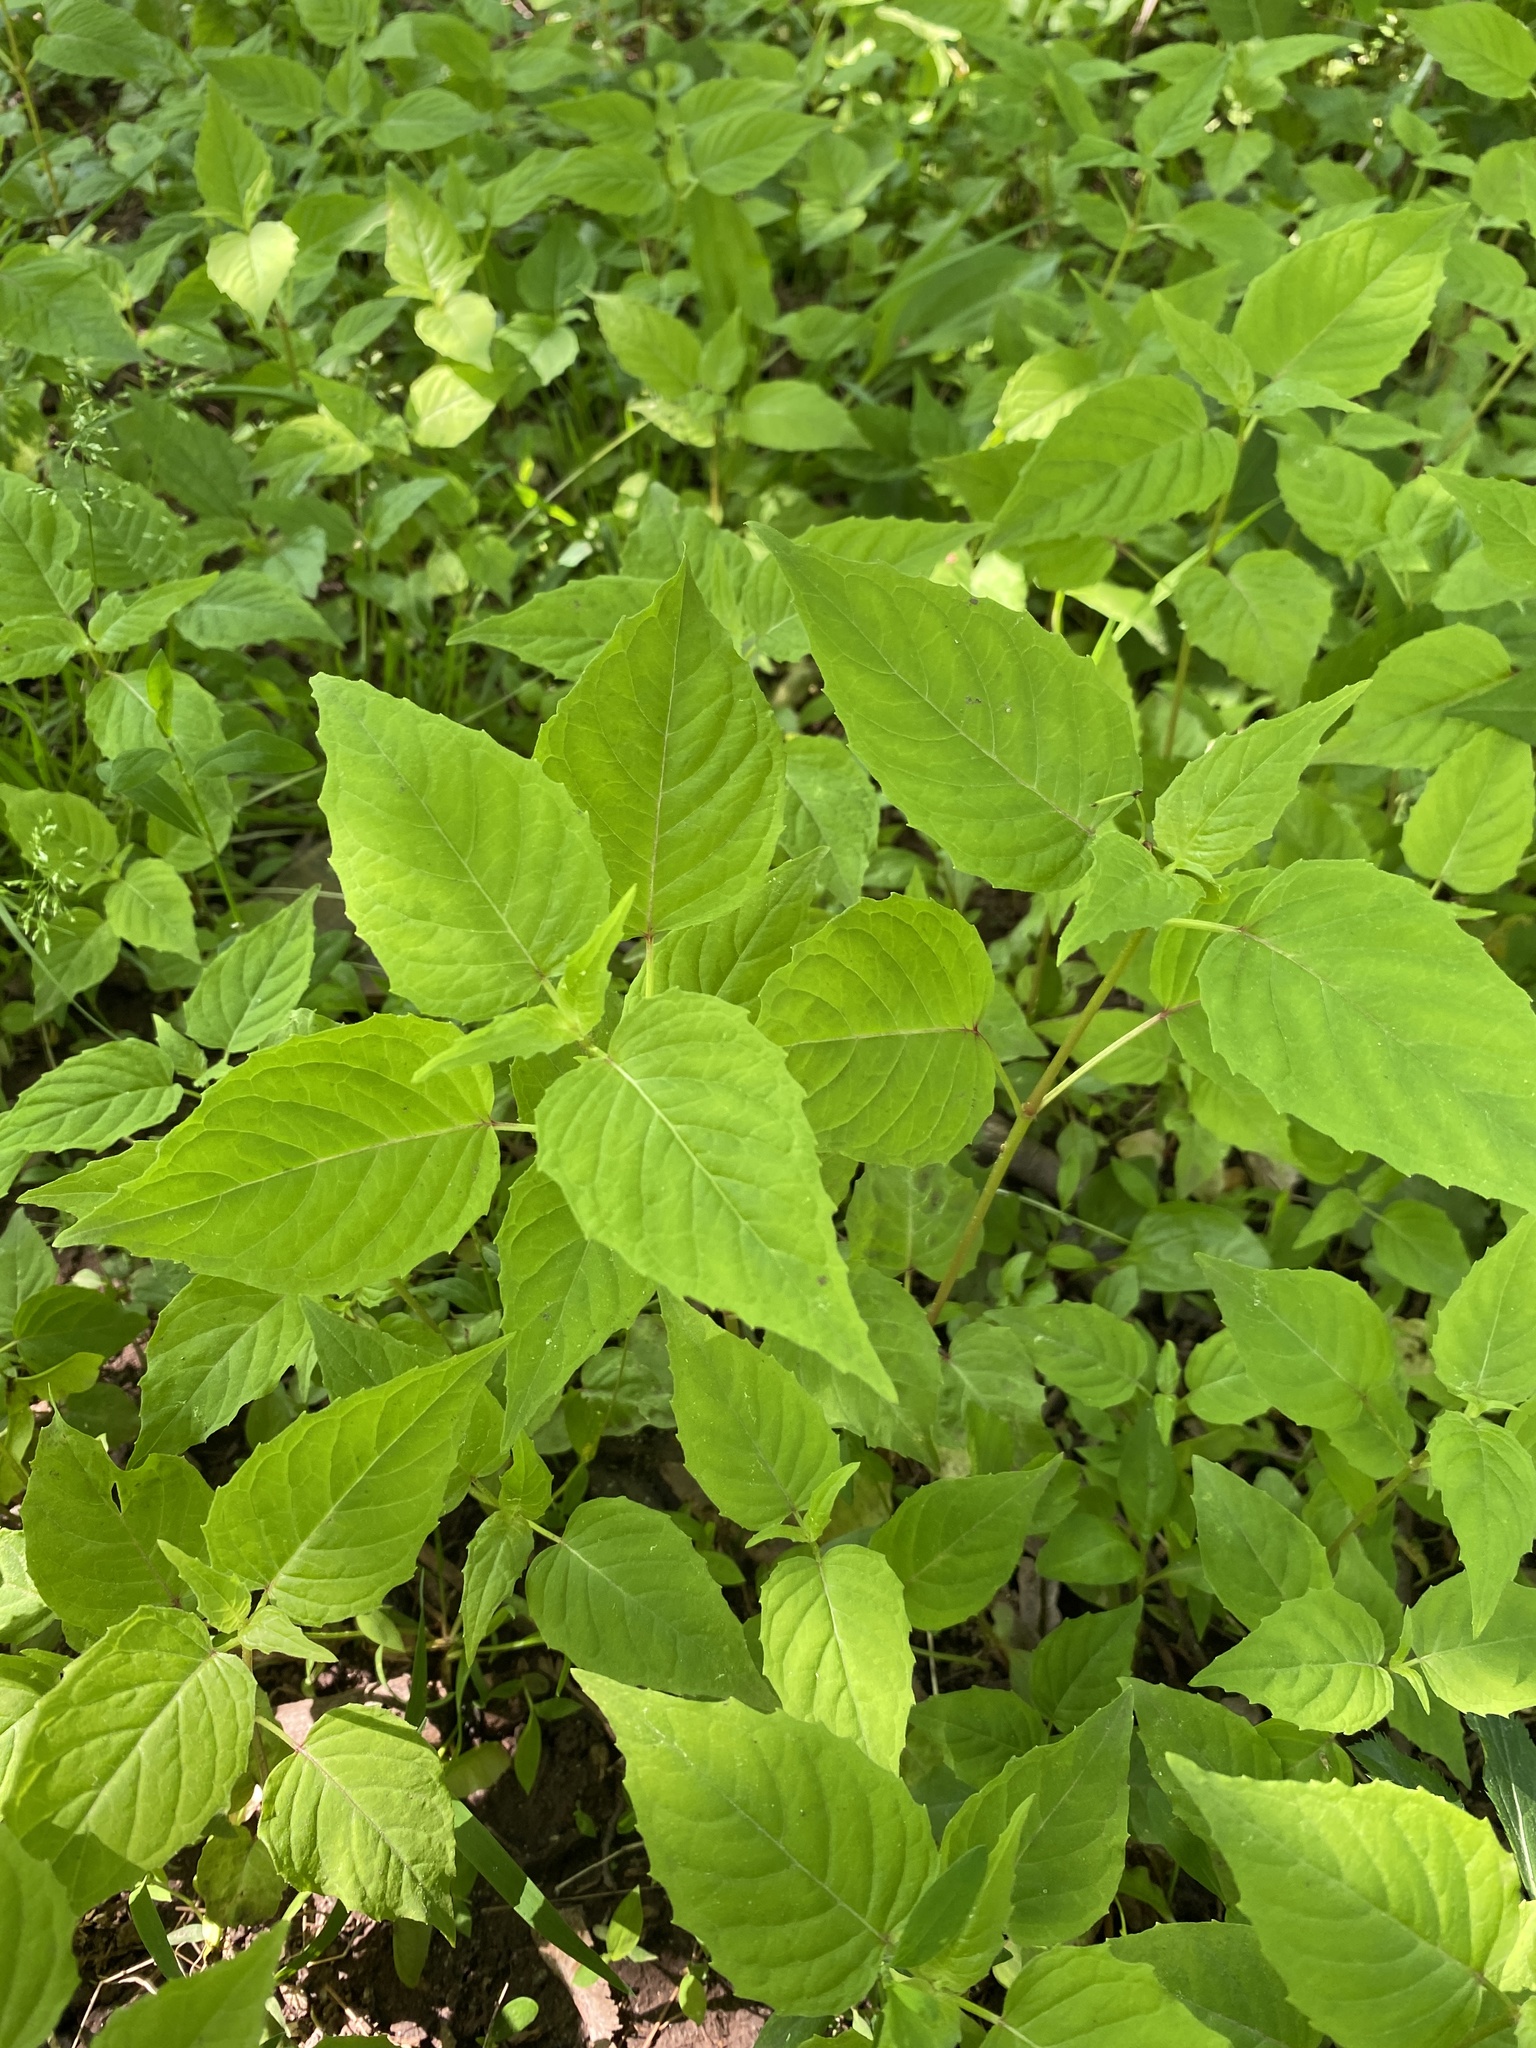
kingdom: Plantae
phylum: Tracheophyta
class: Magnoliopsida
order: Myrtales
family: Onagraceae
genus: Circaea
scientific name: Circaea canadensis
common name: Broad-leaved enchanter's nightshade
